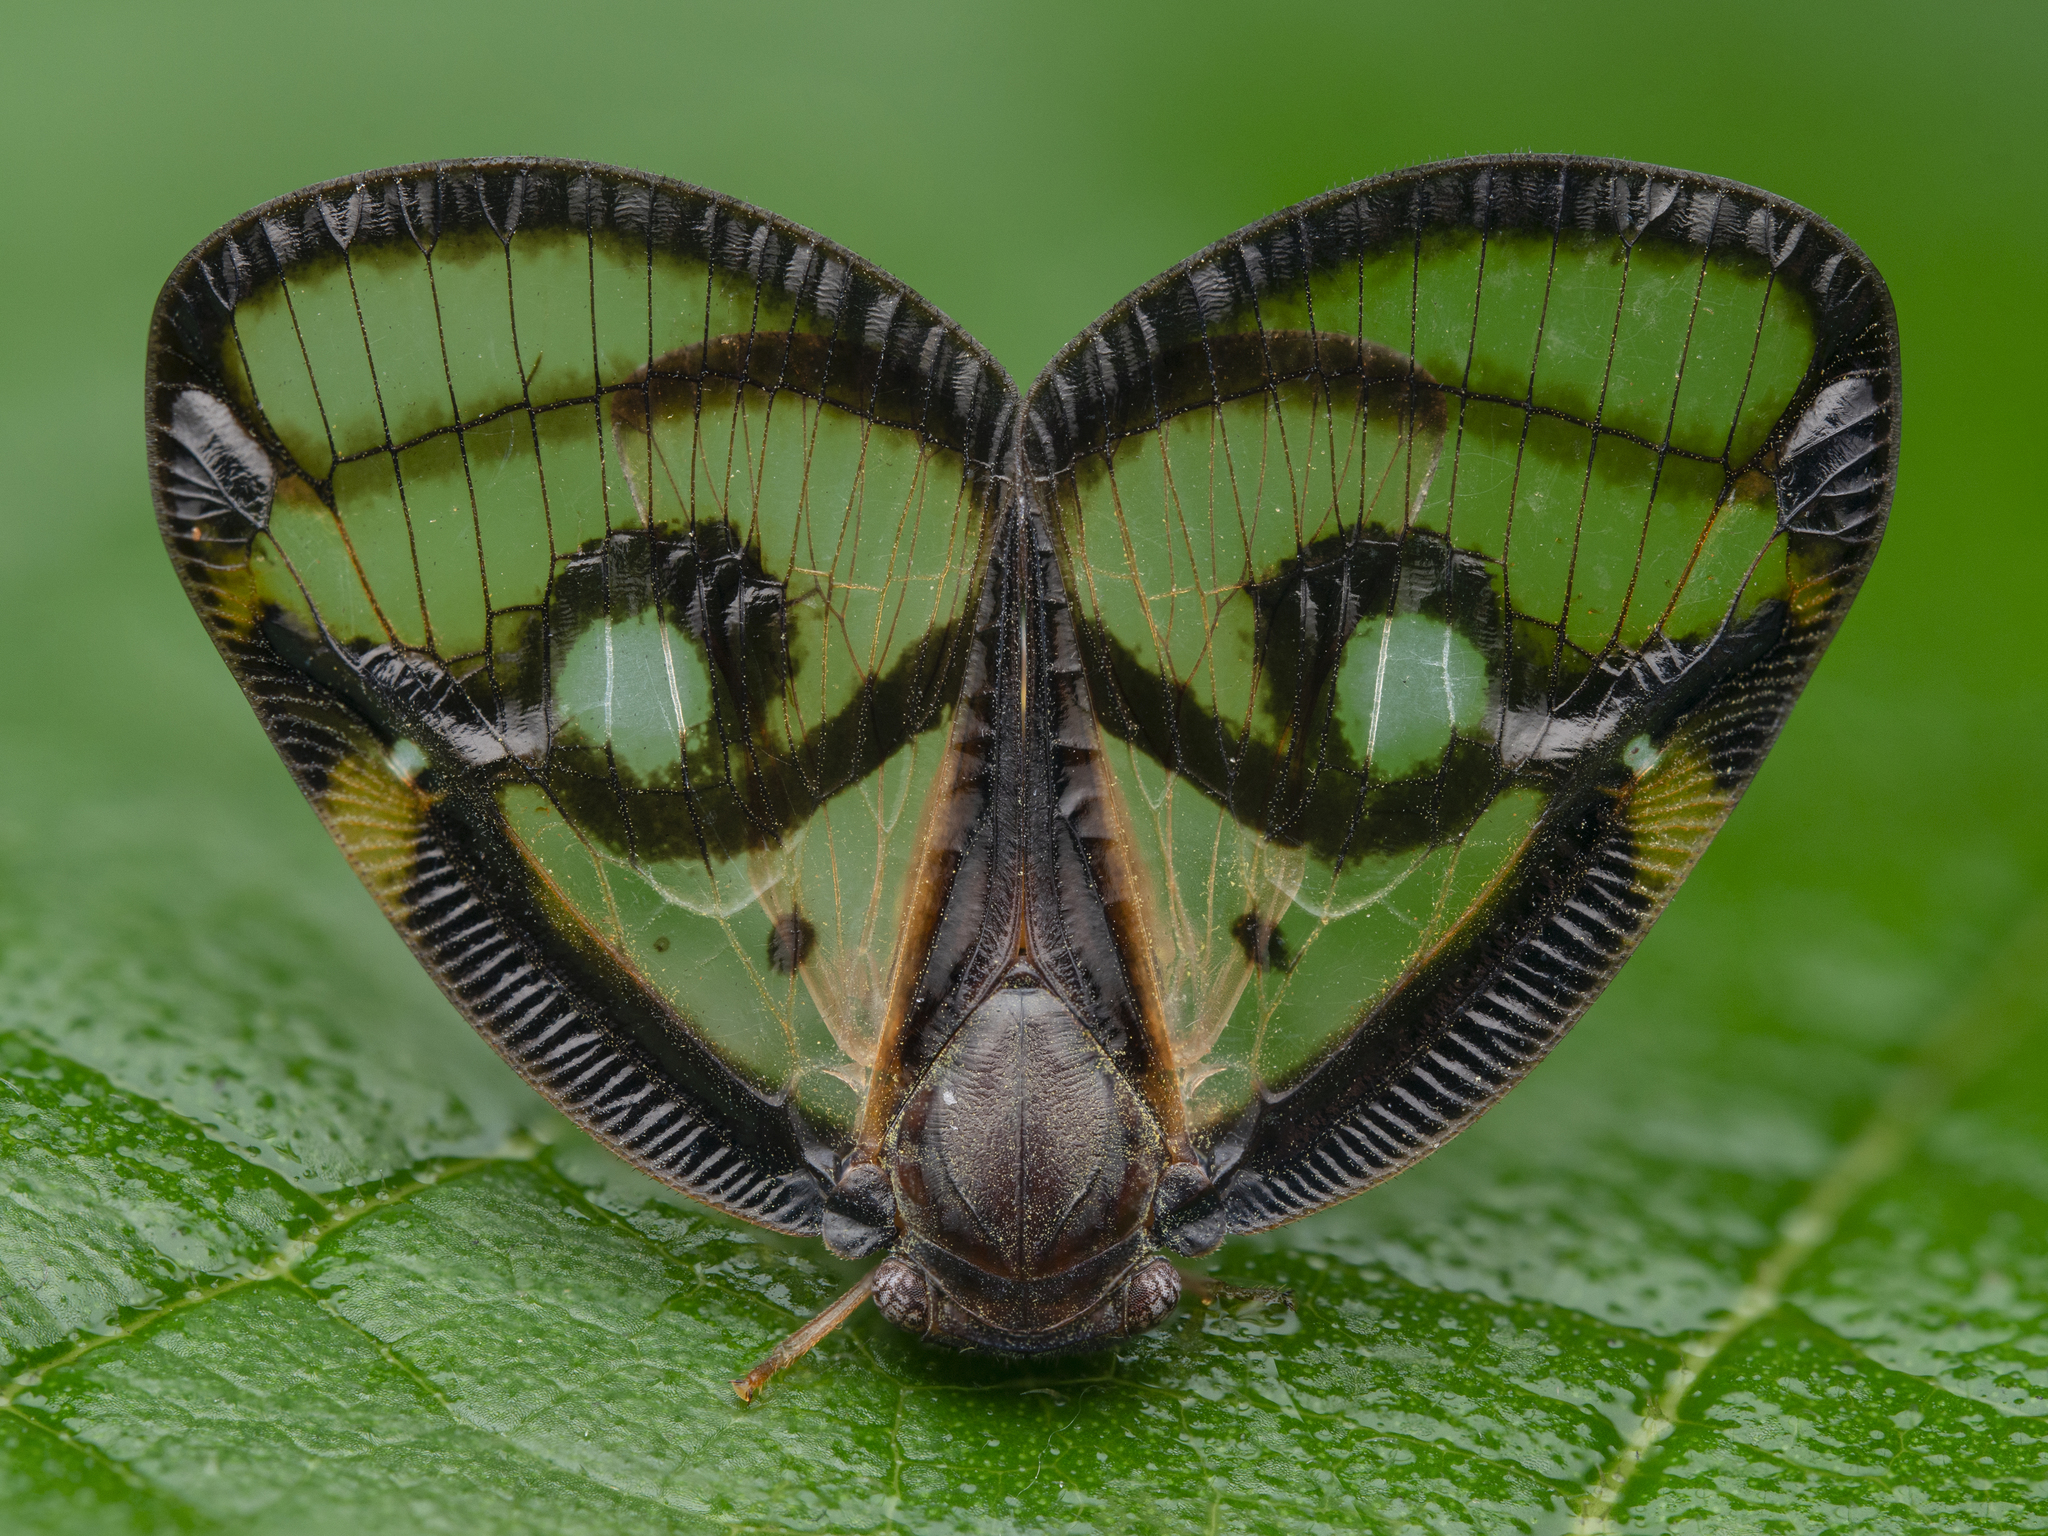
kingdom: Animalia
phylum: Arthropoda
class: Insecta
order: Hemiptera
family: Ricaniidae
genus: Euricania
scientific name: Euricania ocella
